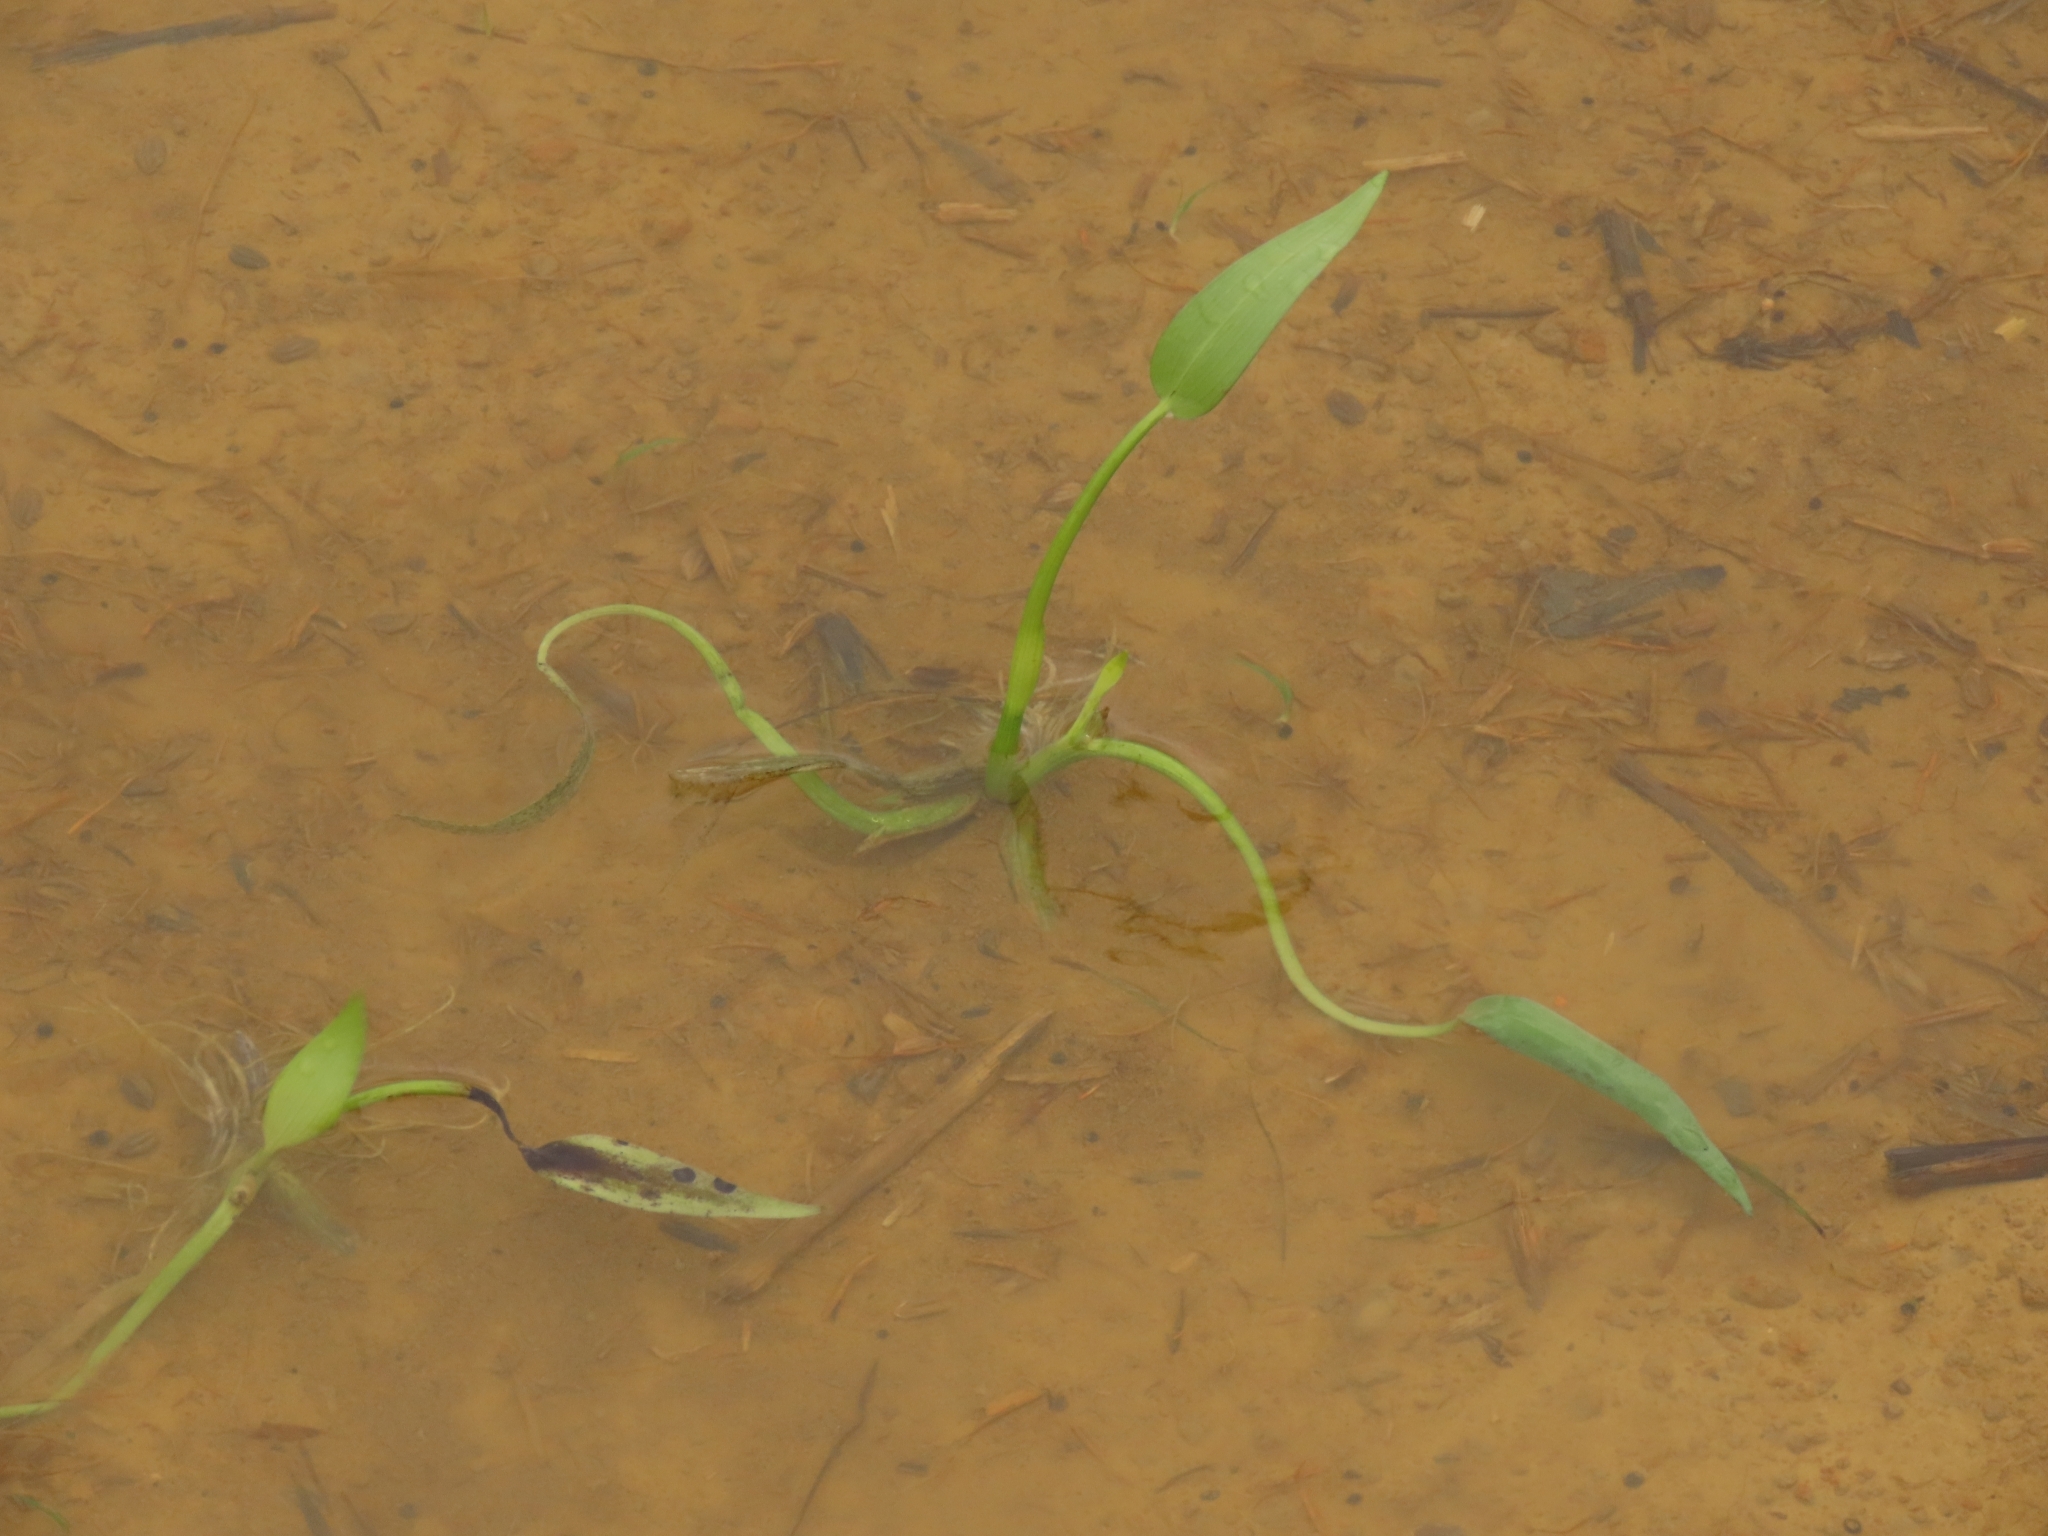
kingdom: Plantae
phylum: Tracheophyta
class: Liliopsida
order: Commelinales
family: Pontederiaceae
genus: Pontederia
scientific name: Pontederia vaginalis
